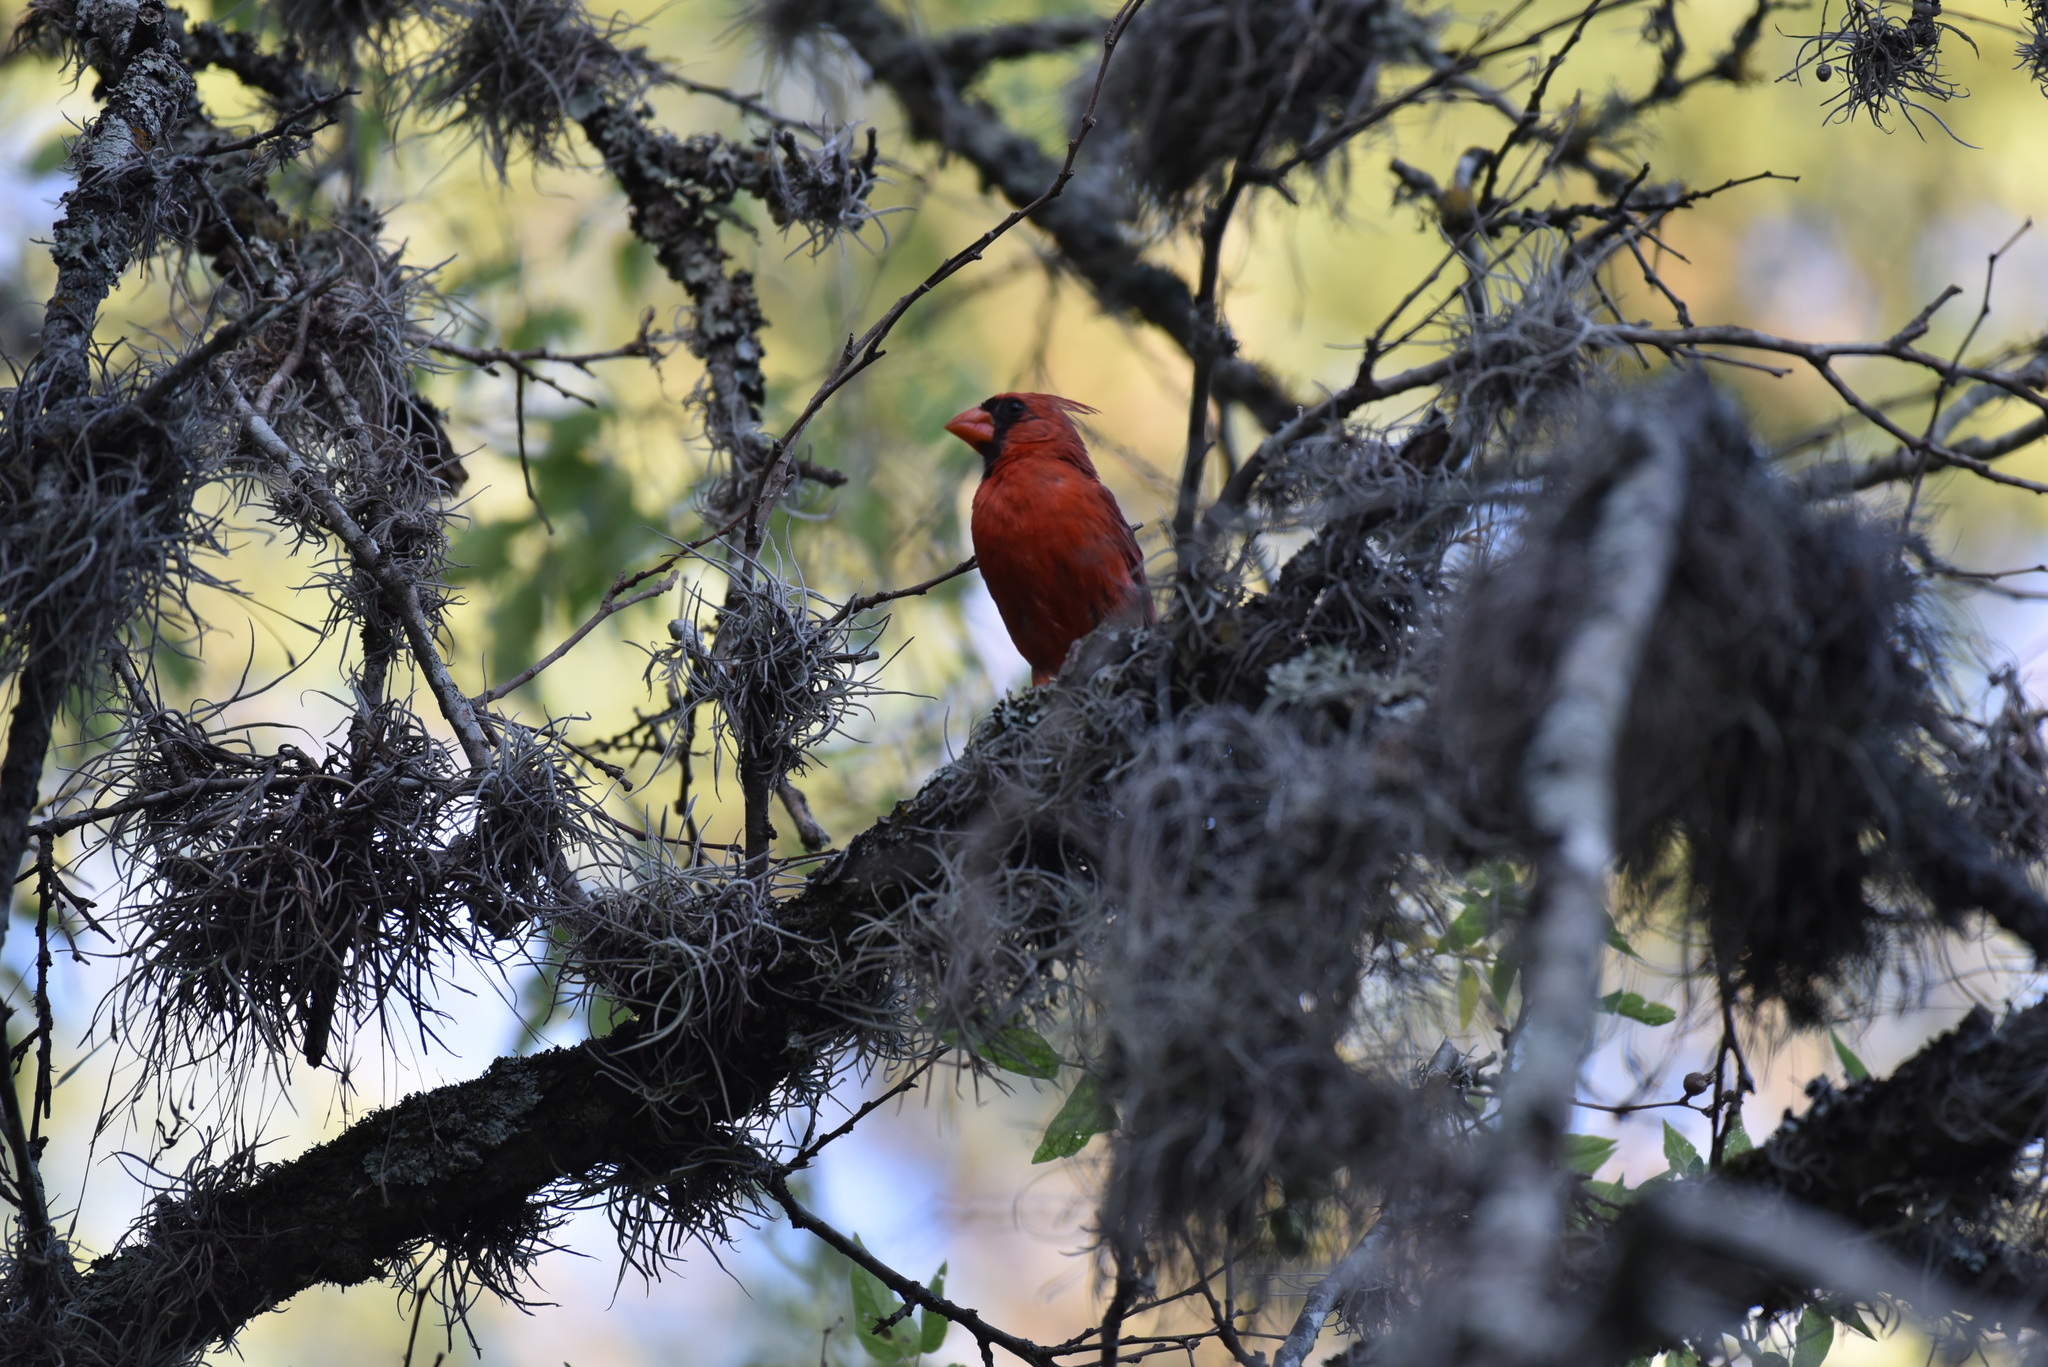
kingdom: Animalia
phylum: Chordata
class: Aves
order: Passeriformes
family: Cardinalidae
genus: Cardinalis
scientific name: Cardinalis cardinalis
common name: Northern cardinal
